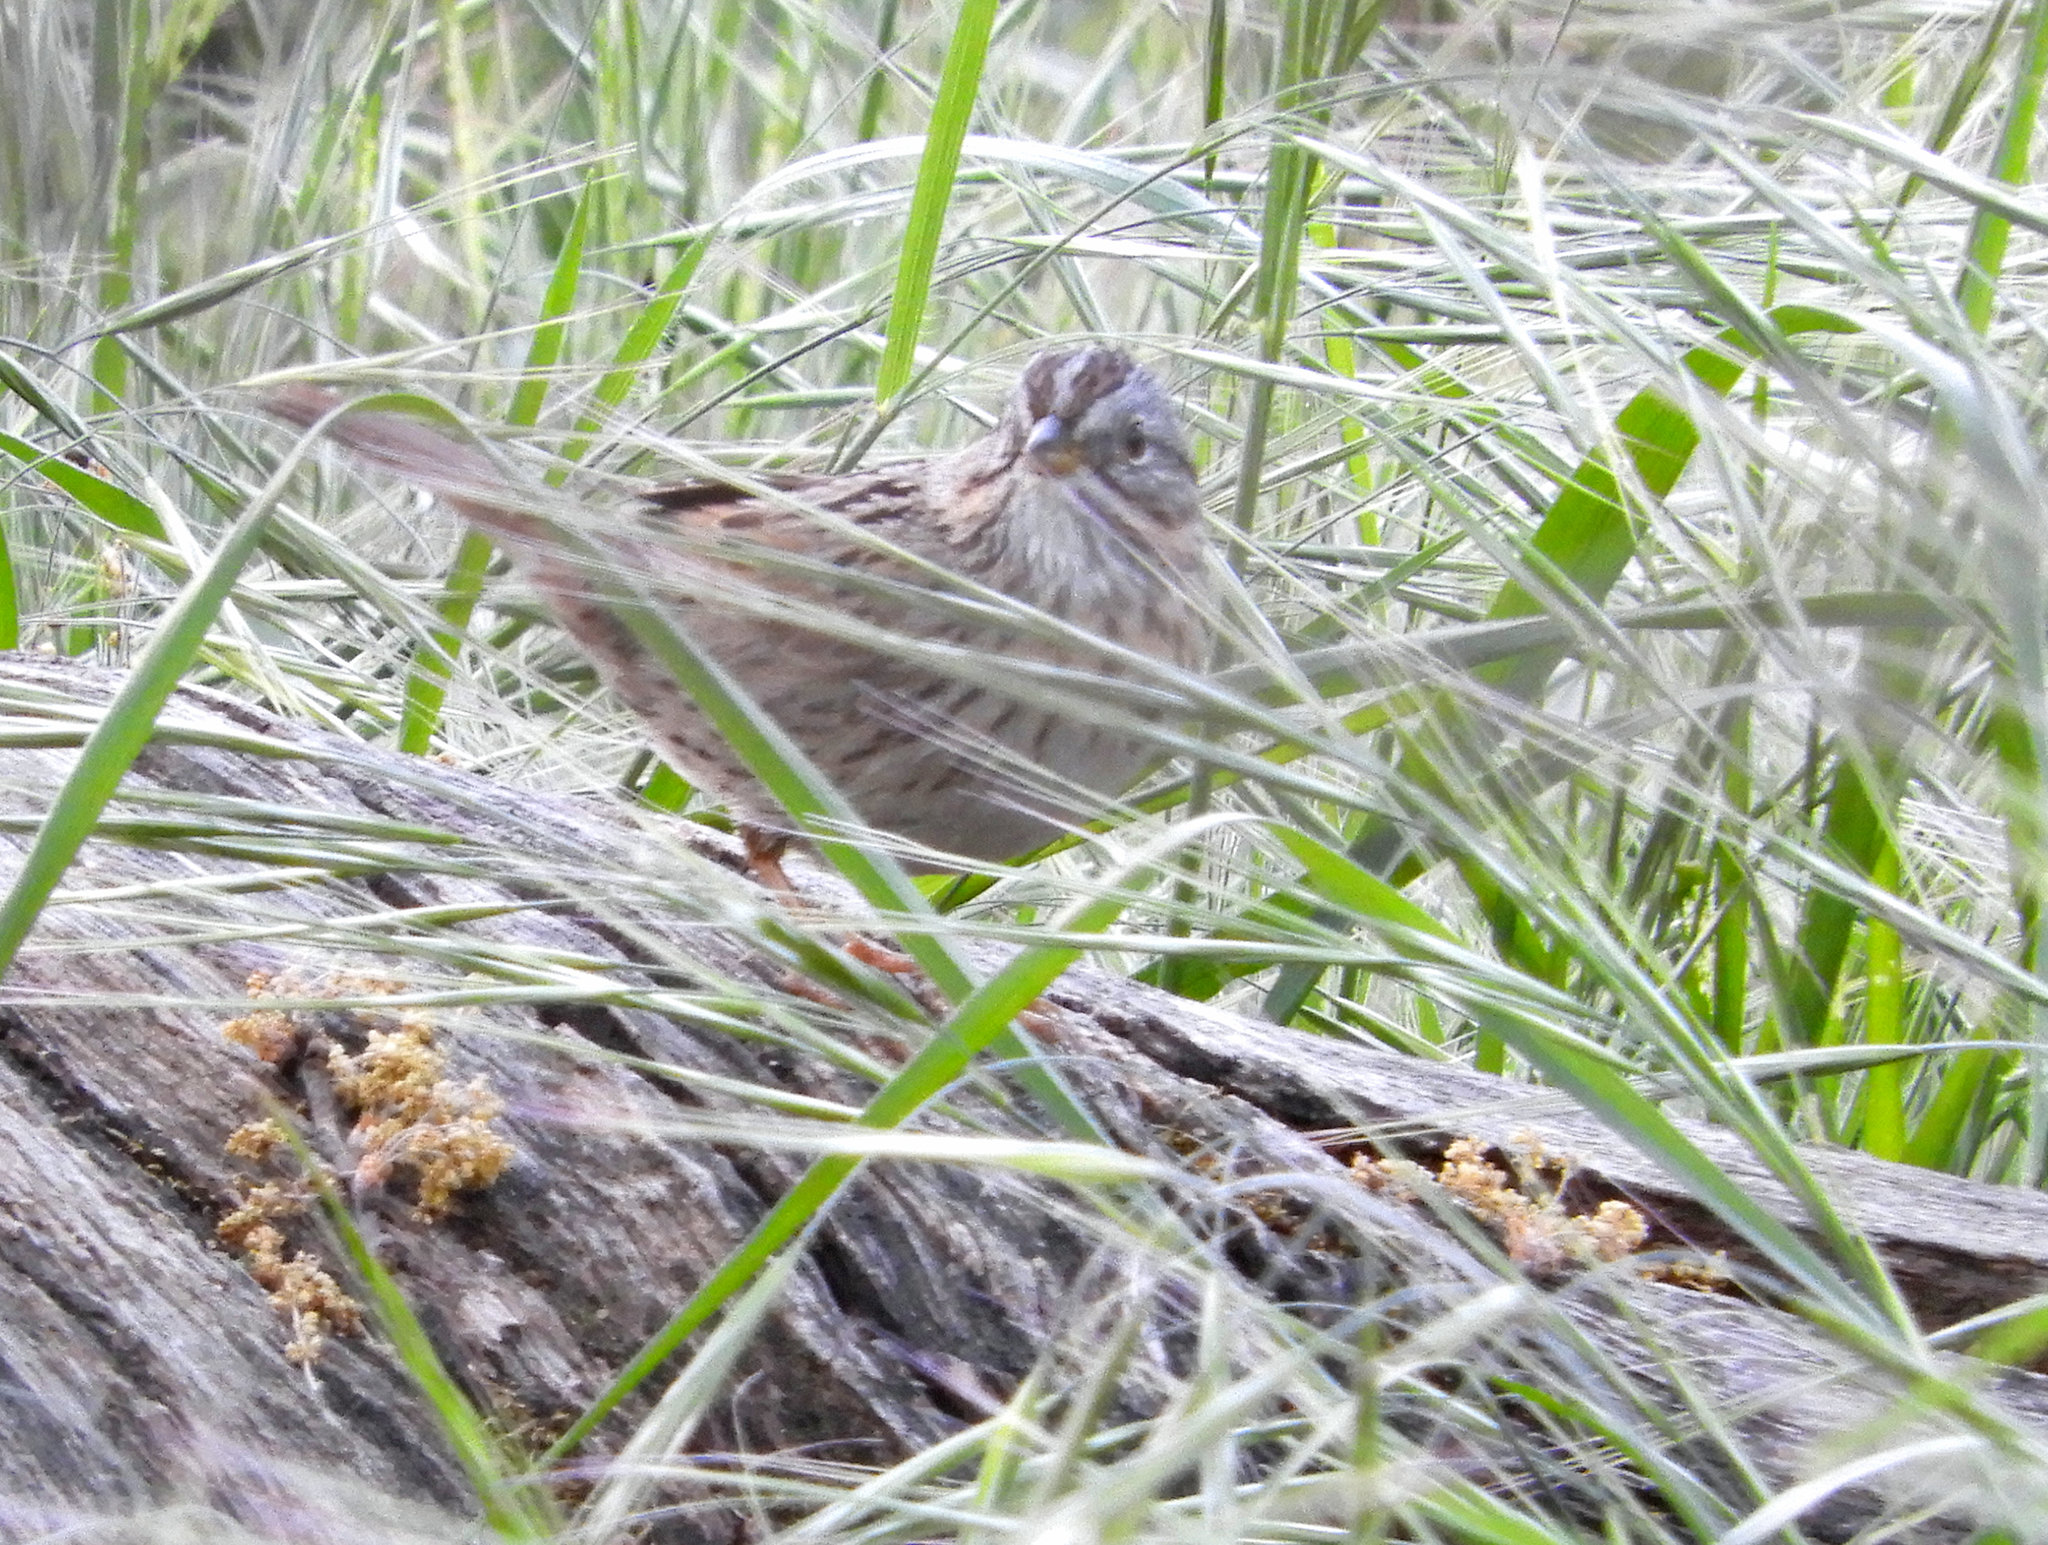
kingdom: Animalia
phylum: Chordata
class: Aves
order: Passeriformes
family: Passerellidae
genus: Melospiza
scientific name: Melospiza lincolnii
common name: Lincoln's sparrow
